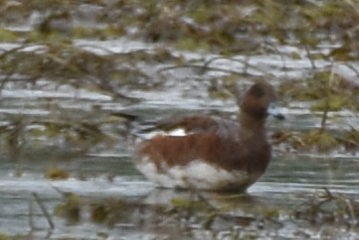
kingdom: Animalia
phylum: Chordata
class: Aves
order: Anseriformes
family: Anatidae
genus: Mareca
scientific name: Mareca penelope
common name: Eurasian wigeon
